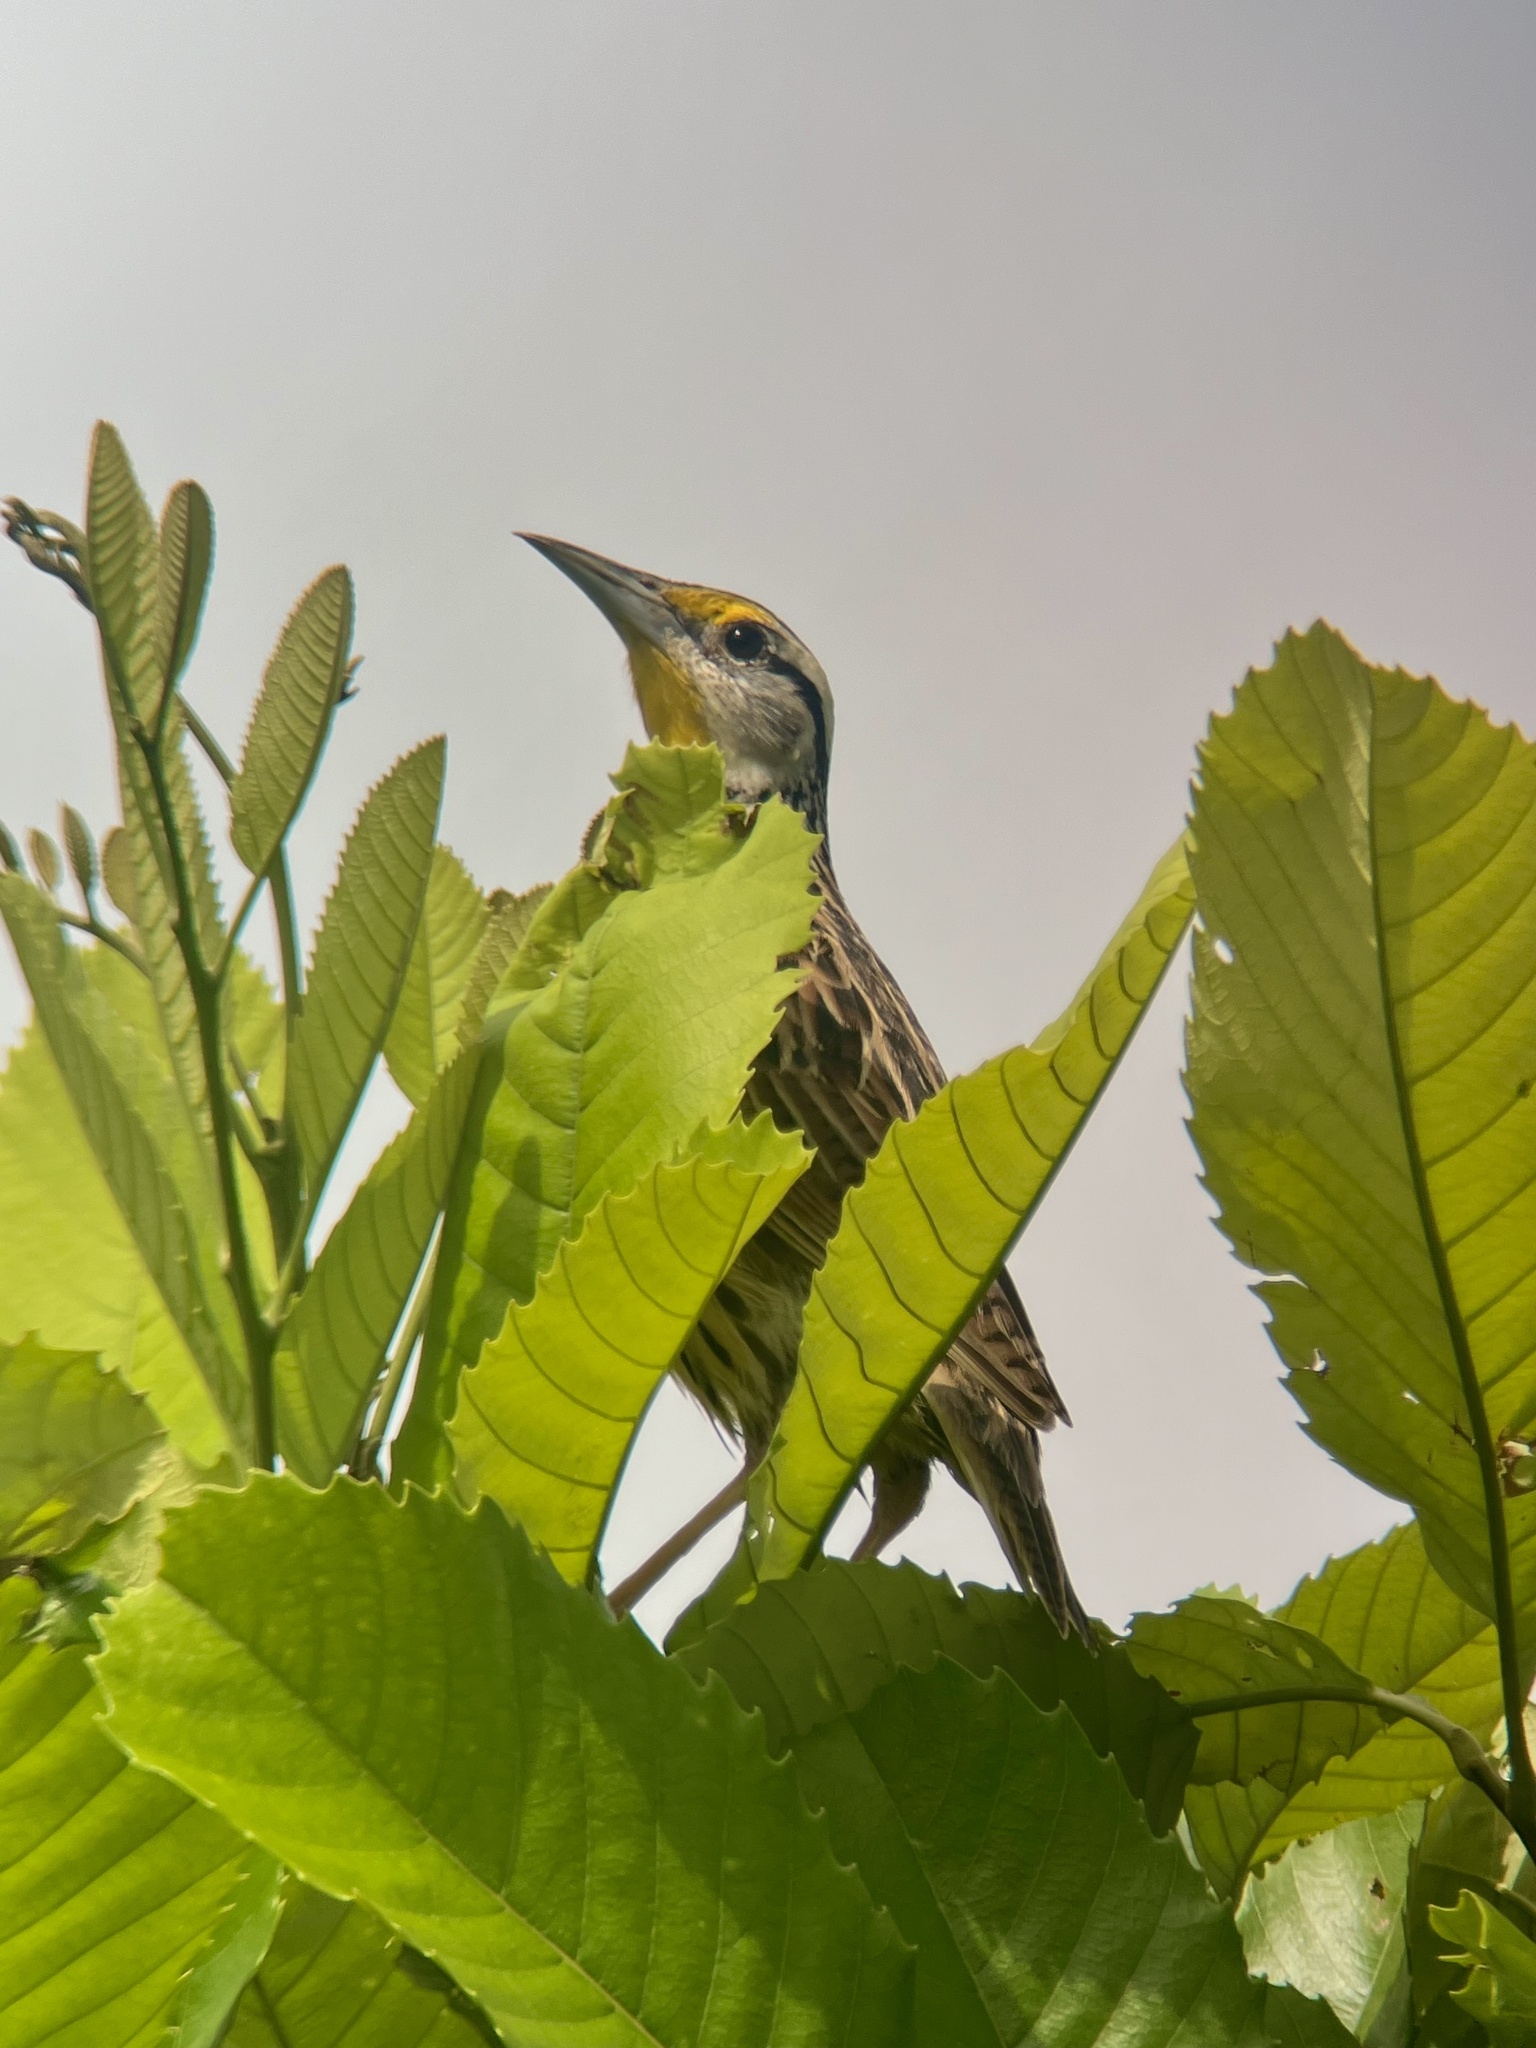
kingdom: Animalia
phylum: Chordata
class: Aves
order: Passeriformes
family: Icteridae
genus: Sturnella
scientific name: Sturnella magna
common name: Eastern meadowlark
